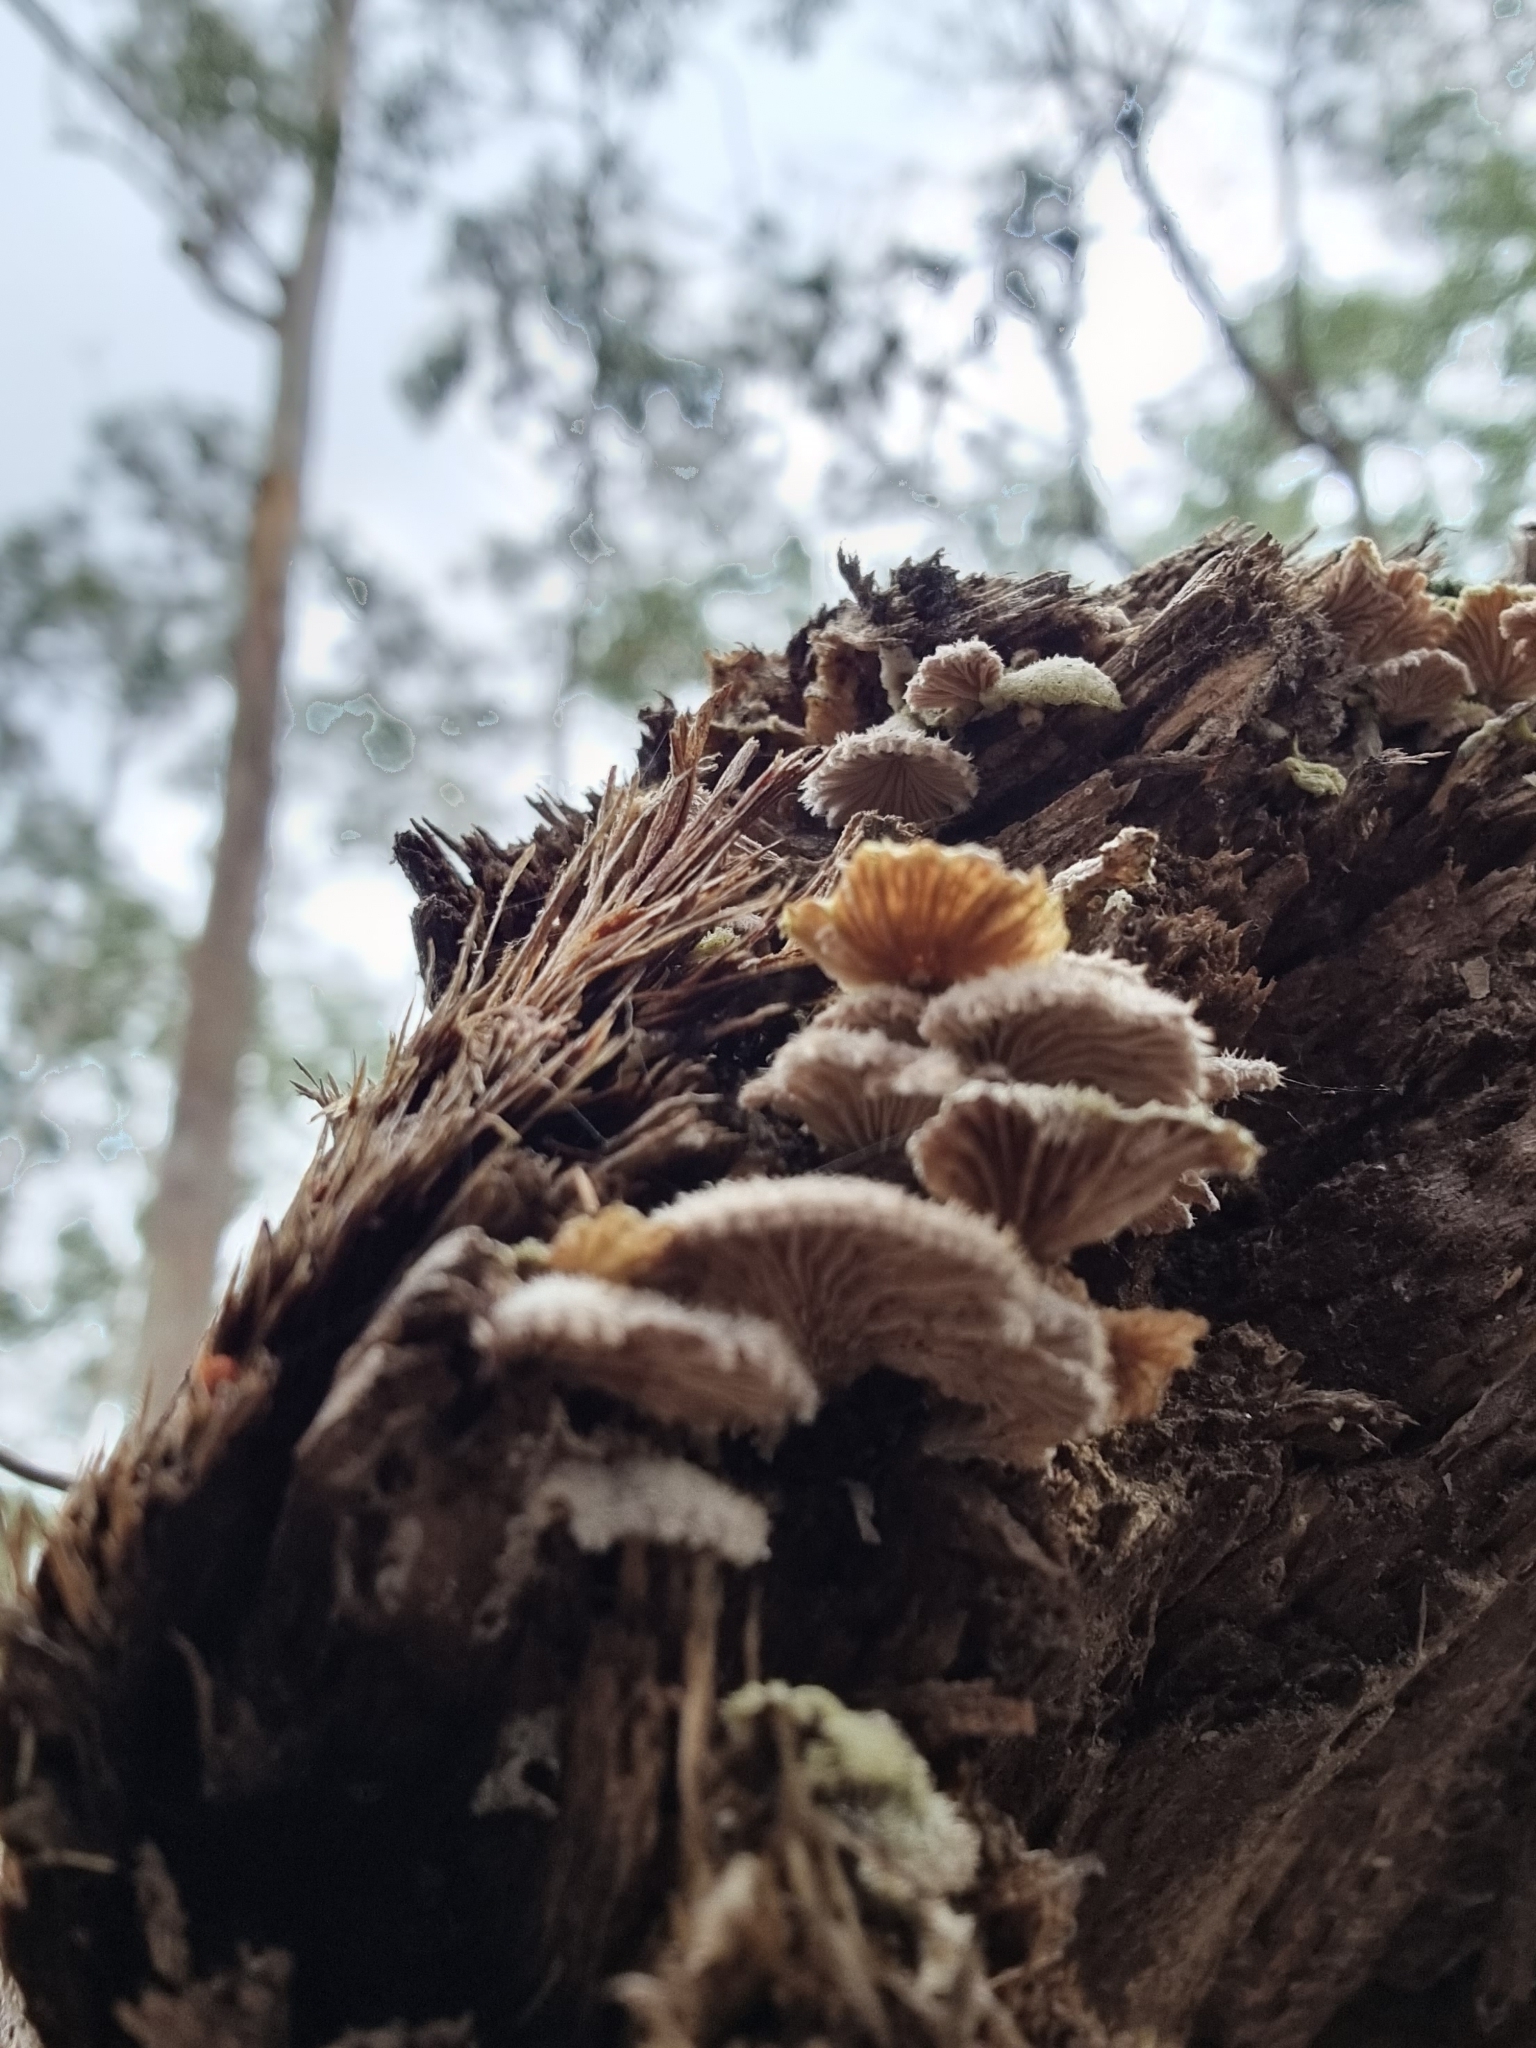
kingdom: Fungi
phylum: Basidiomycota
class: Agaricomycetes
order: Agaricales
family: Schizophyllaceae
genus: Schizophyllum
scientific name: Schizophyllum commune
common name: Common porecrust
